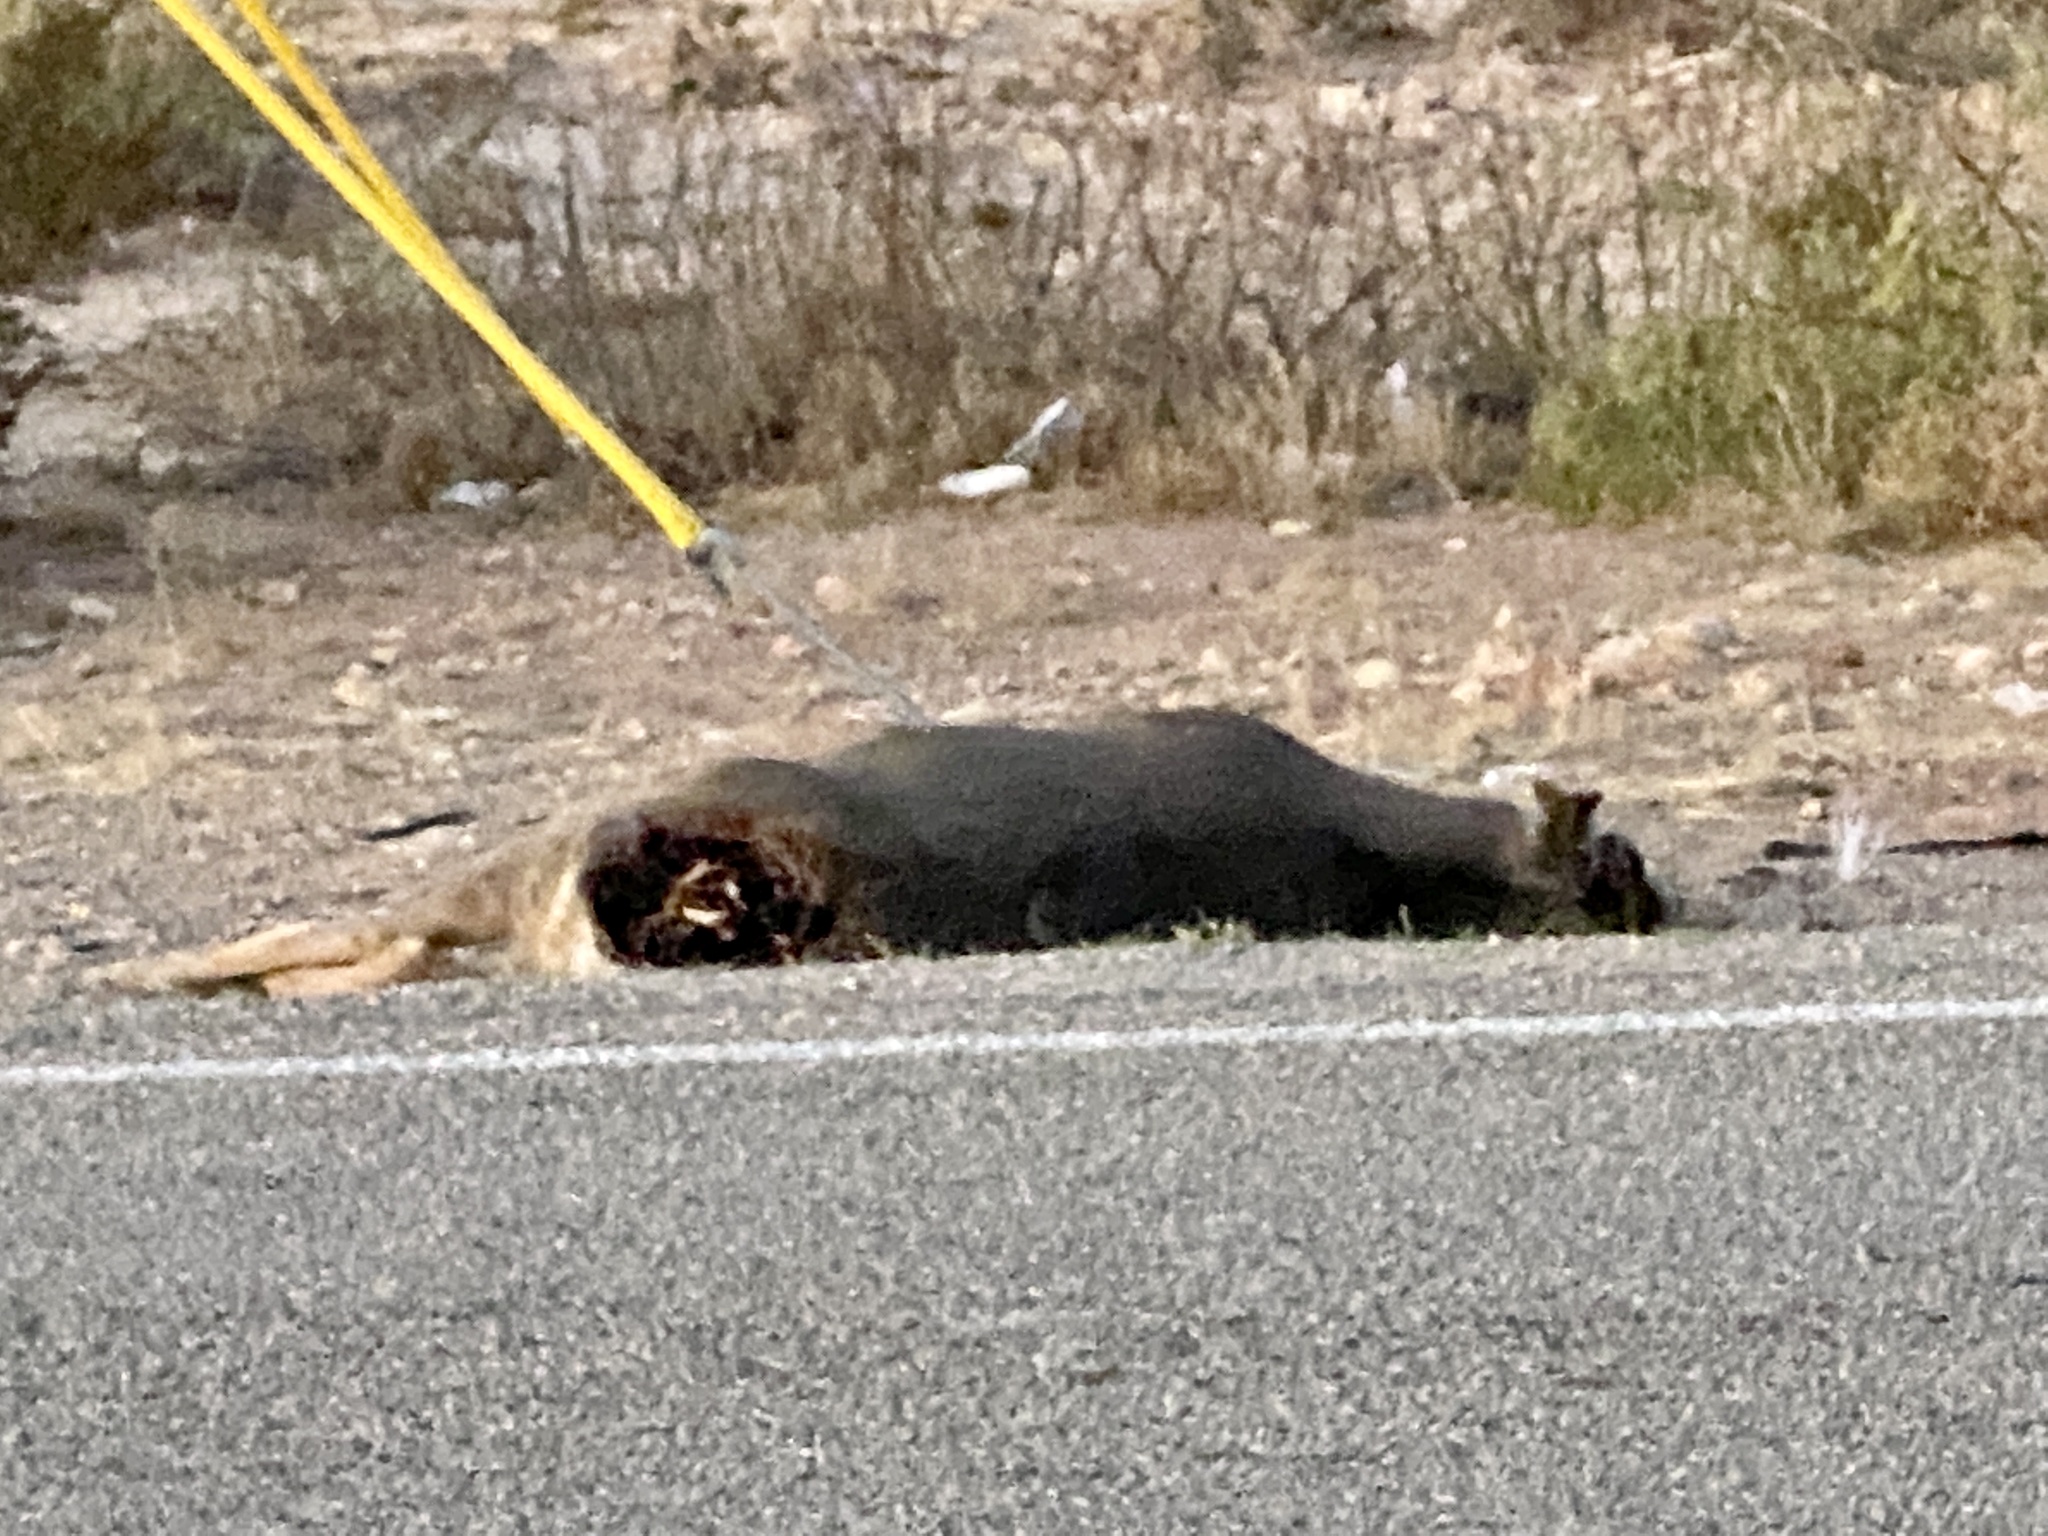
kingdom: Animalia
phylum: Chordata
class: Mammalia
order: Artiodactyla
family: Cervidae
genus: Odocoileus
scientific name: Odocoileus hemionus
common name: Mule deer
